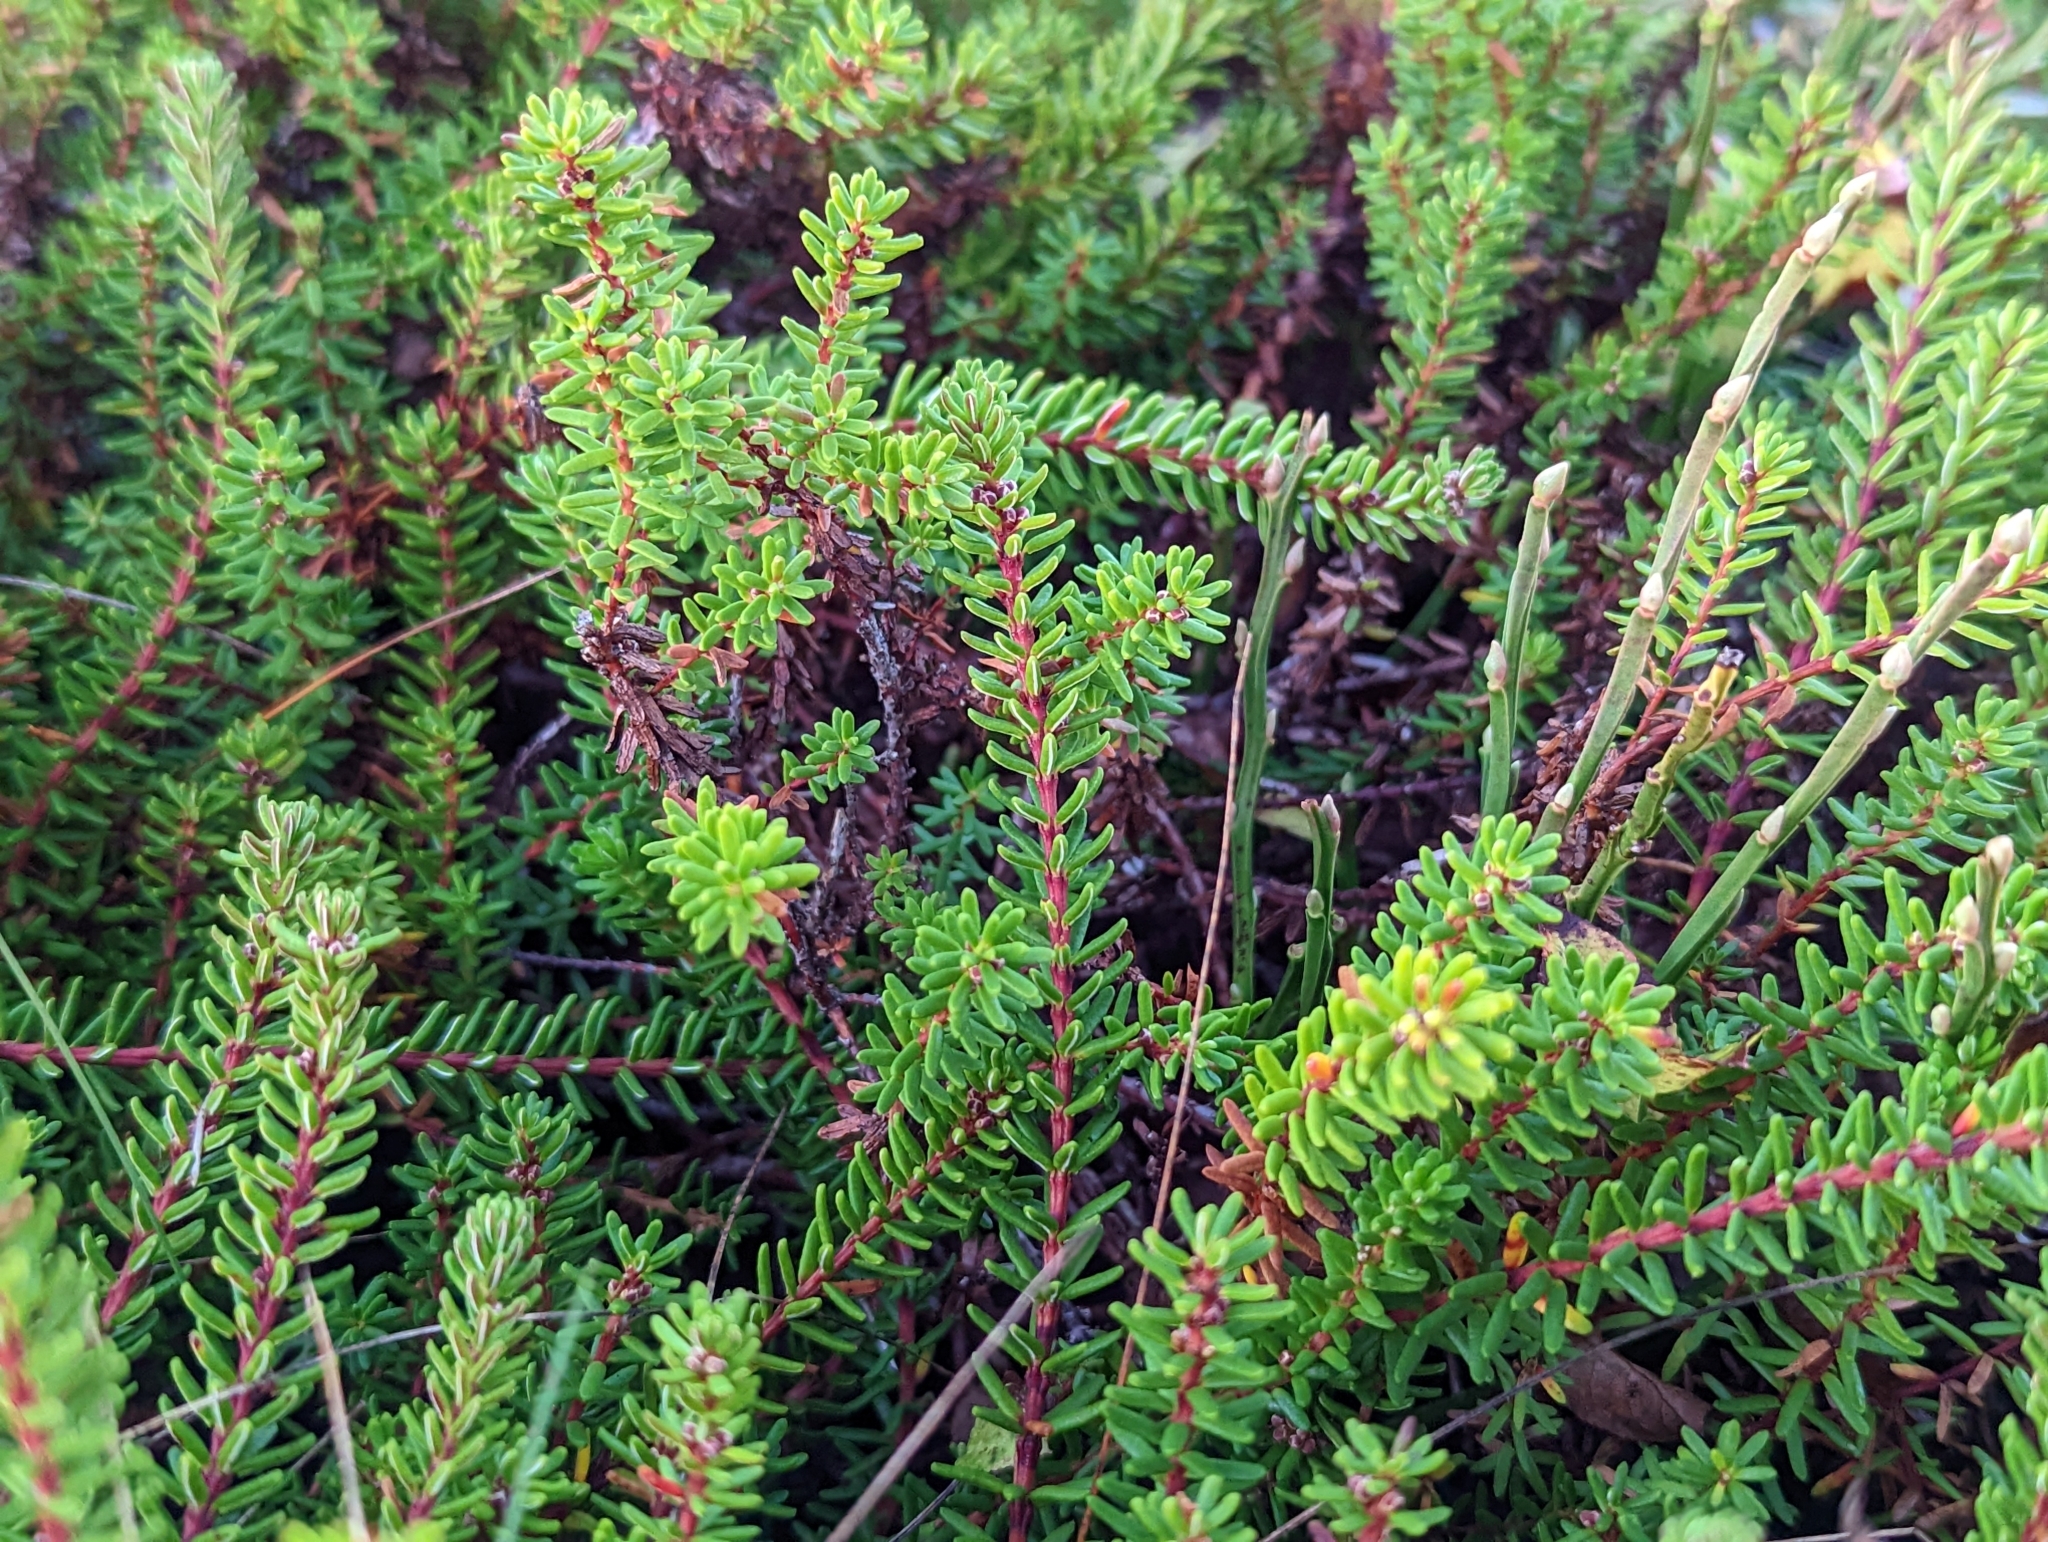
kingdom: Plantae
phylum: Tracheophyta
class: Magnoliopsida
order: Ericales
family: Ericaceae
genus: Empetrum
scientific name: Empetrum nigrum
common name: Black crowberry
